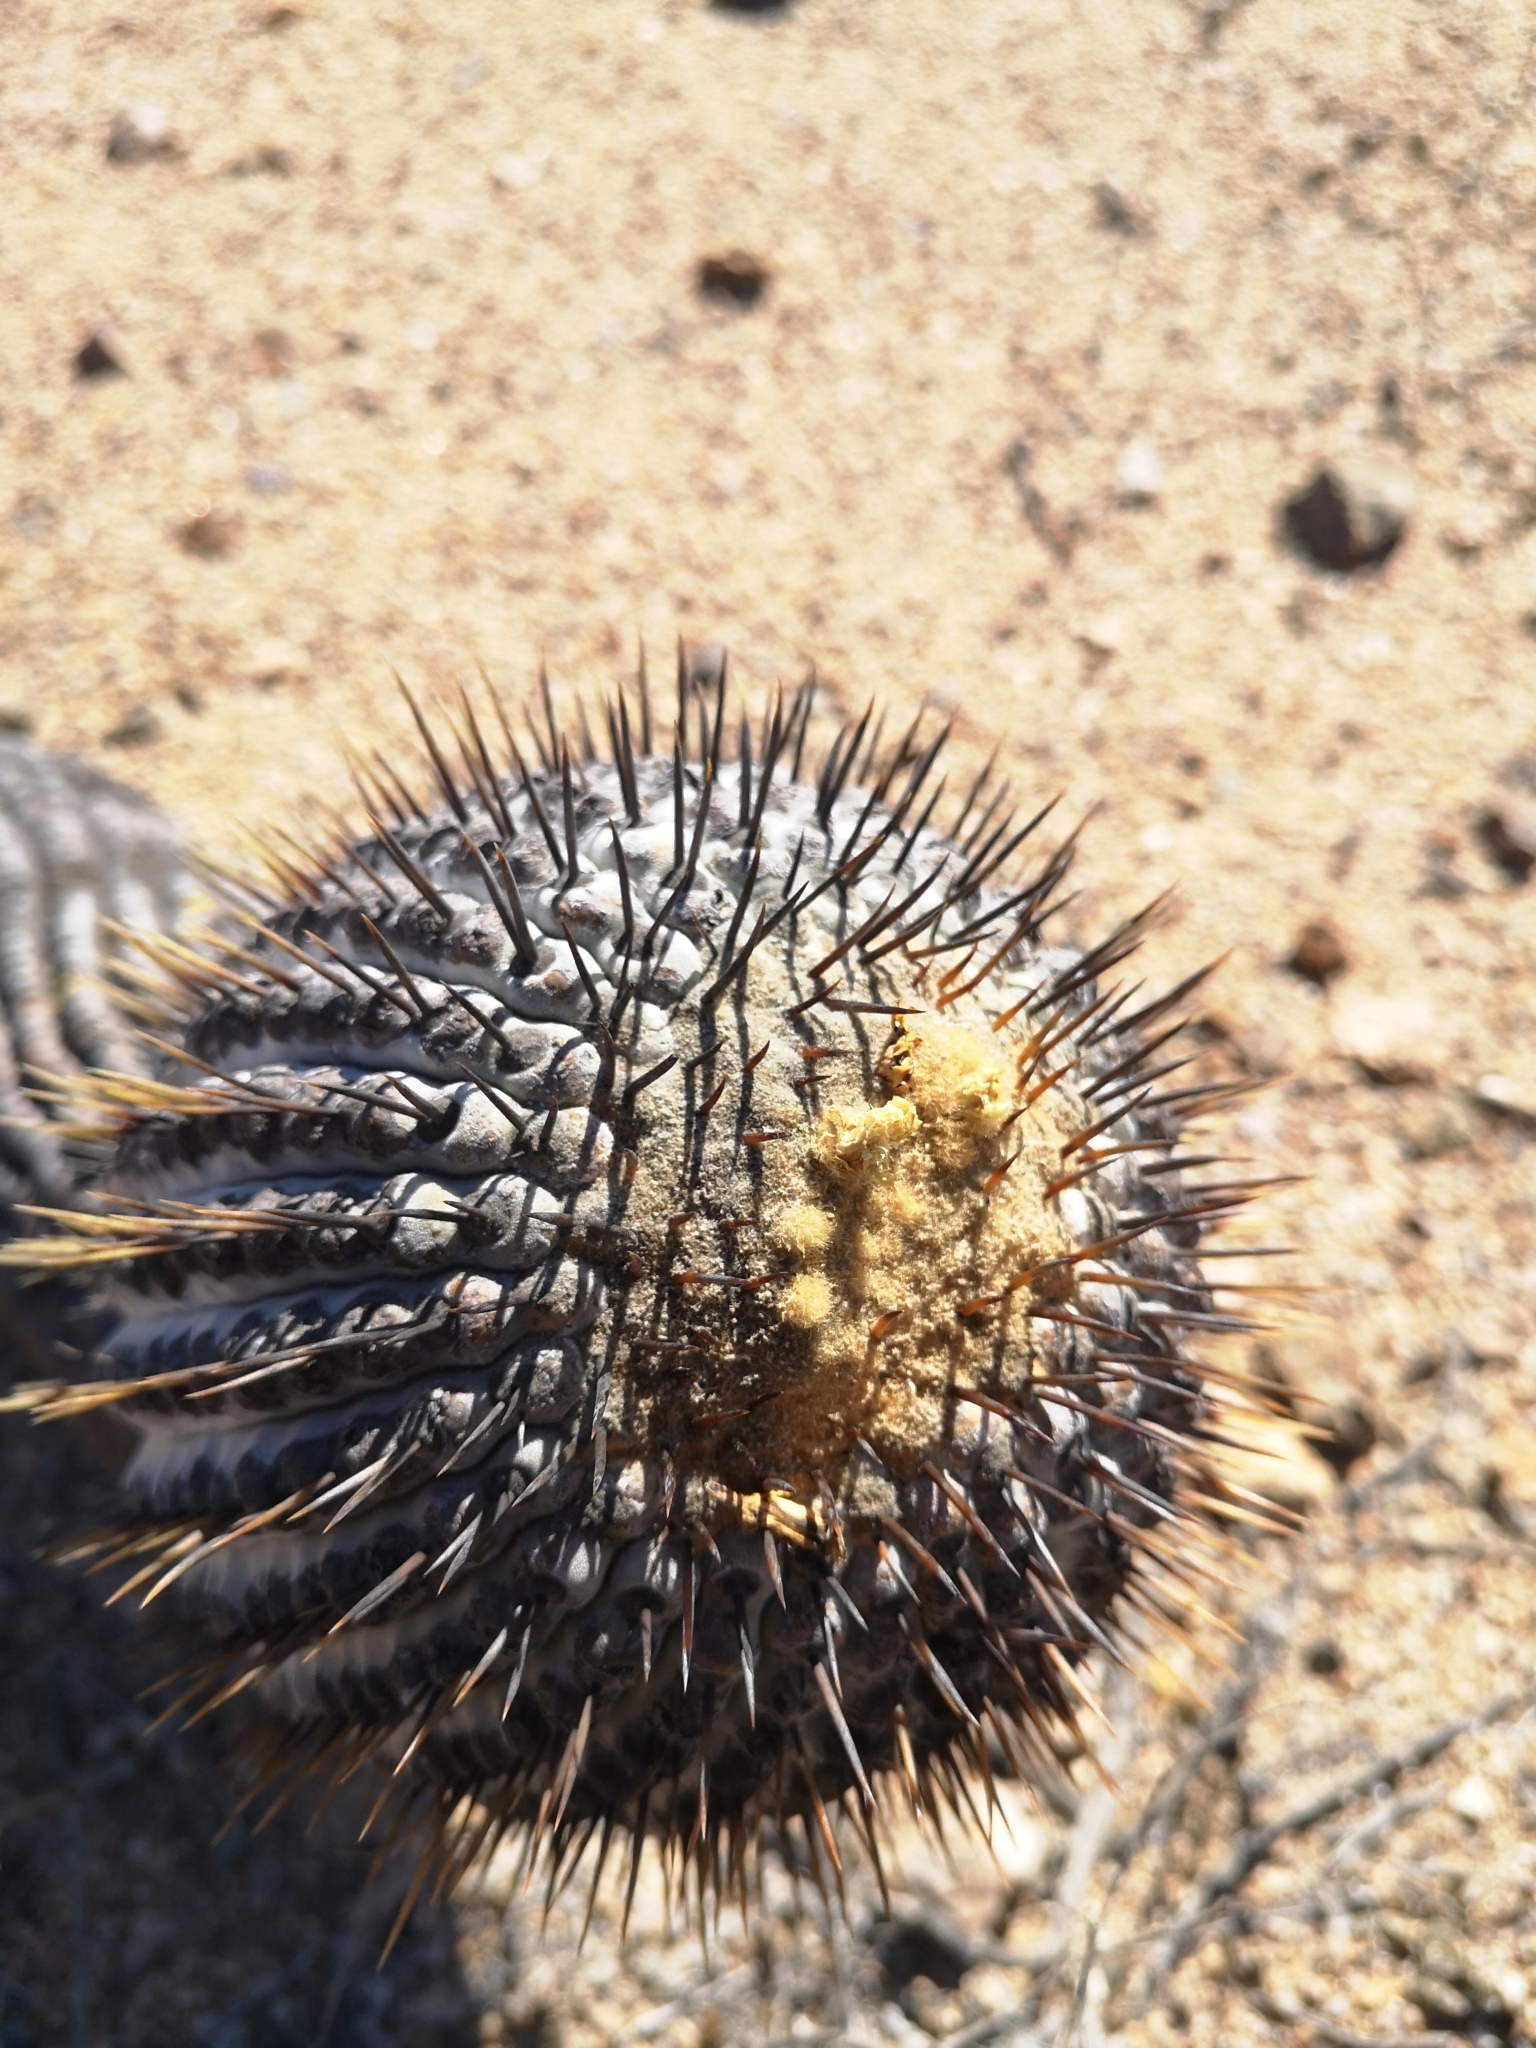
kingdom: Plantae
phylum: Tracheophyta
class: Magnoliopsida
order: Caryophyllales
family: Cactaceae
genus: Copiapoa
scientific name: Copiapoa cinerea
